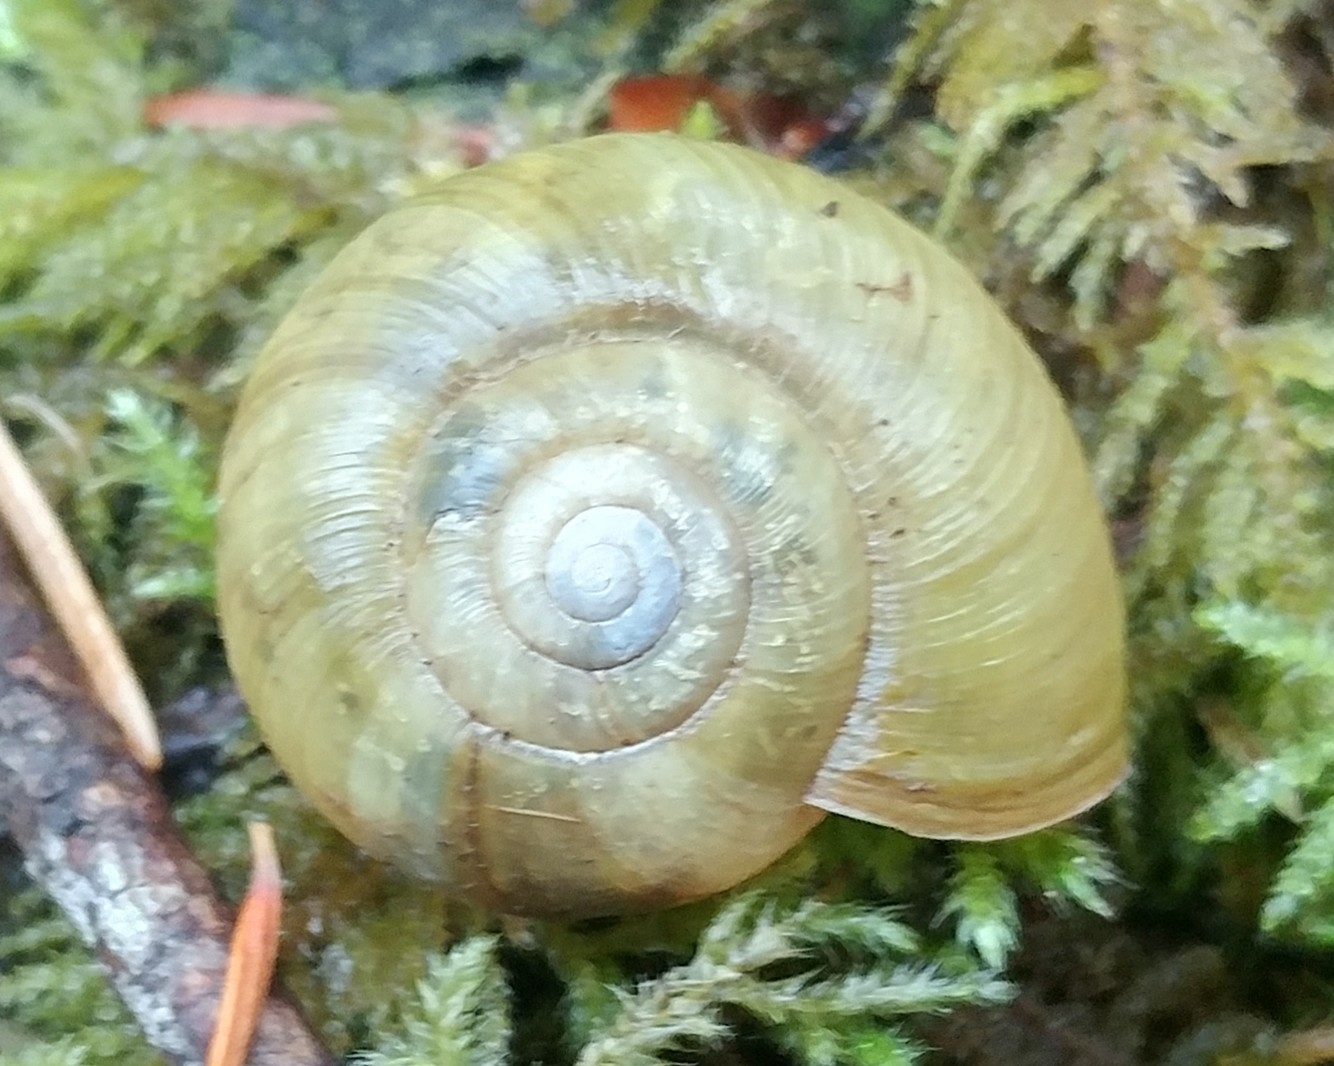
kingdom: Animalia
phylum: Mollusca
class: Gastropoda
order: Stylommatophora
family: Haplotrematidae
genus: Haplotrema
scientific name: Haplotrema vancouverense
